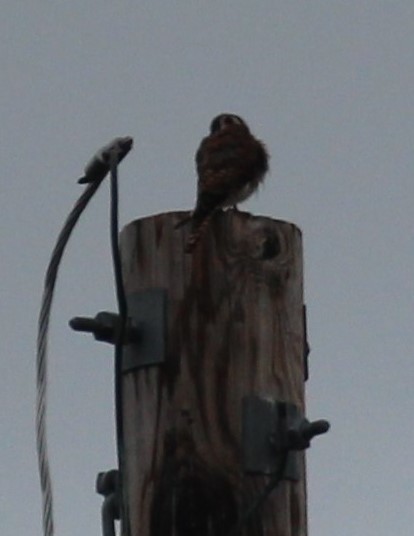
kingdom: Animalia
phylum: Chordata
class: Aves
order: Falconiformes
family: Falconidae
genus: Falco
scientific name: Falco sparverius
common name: American kestrel
